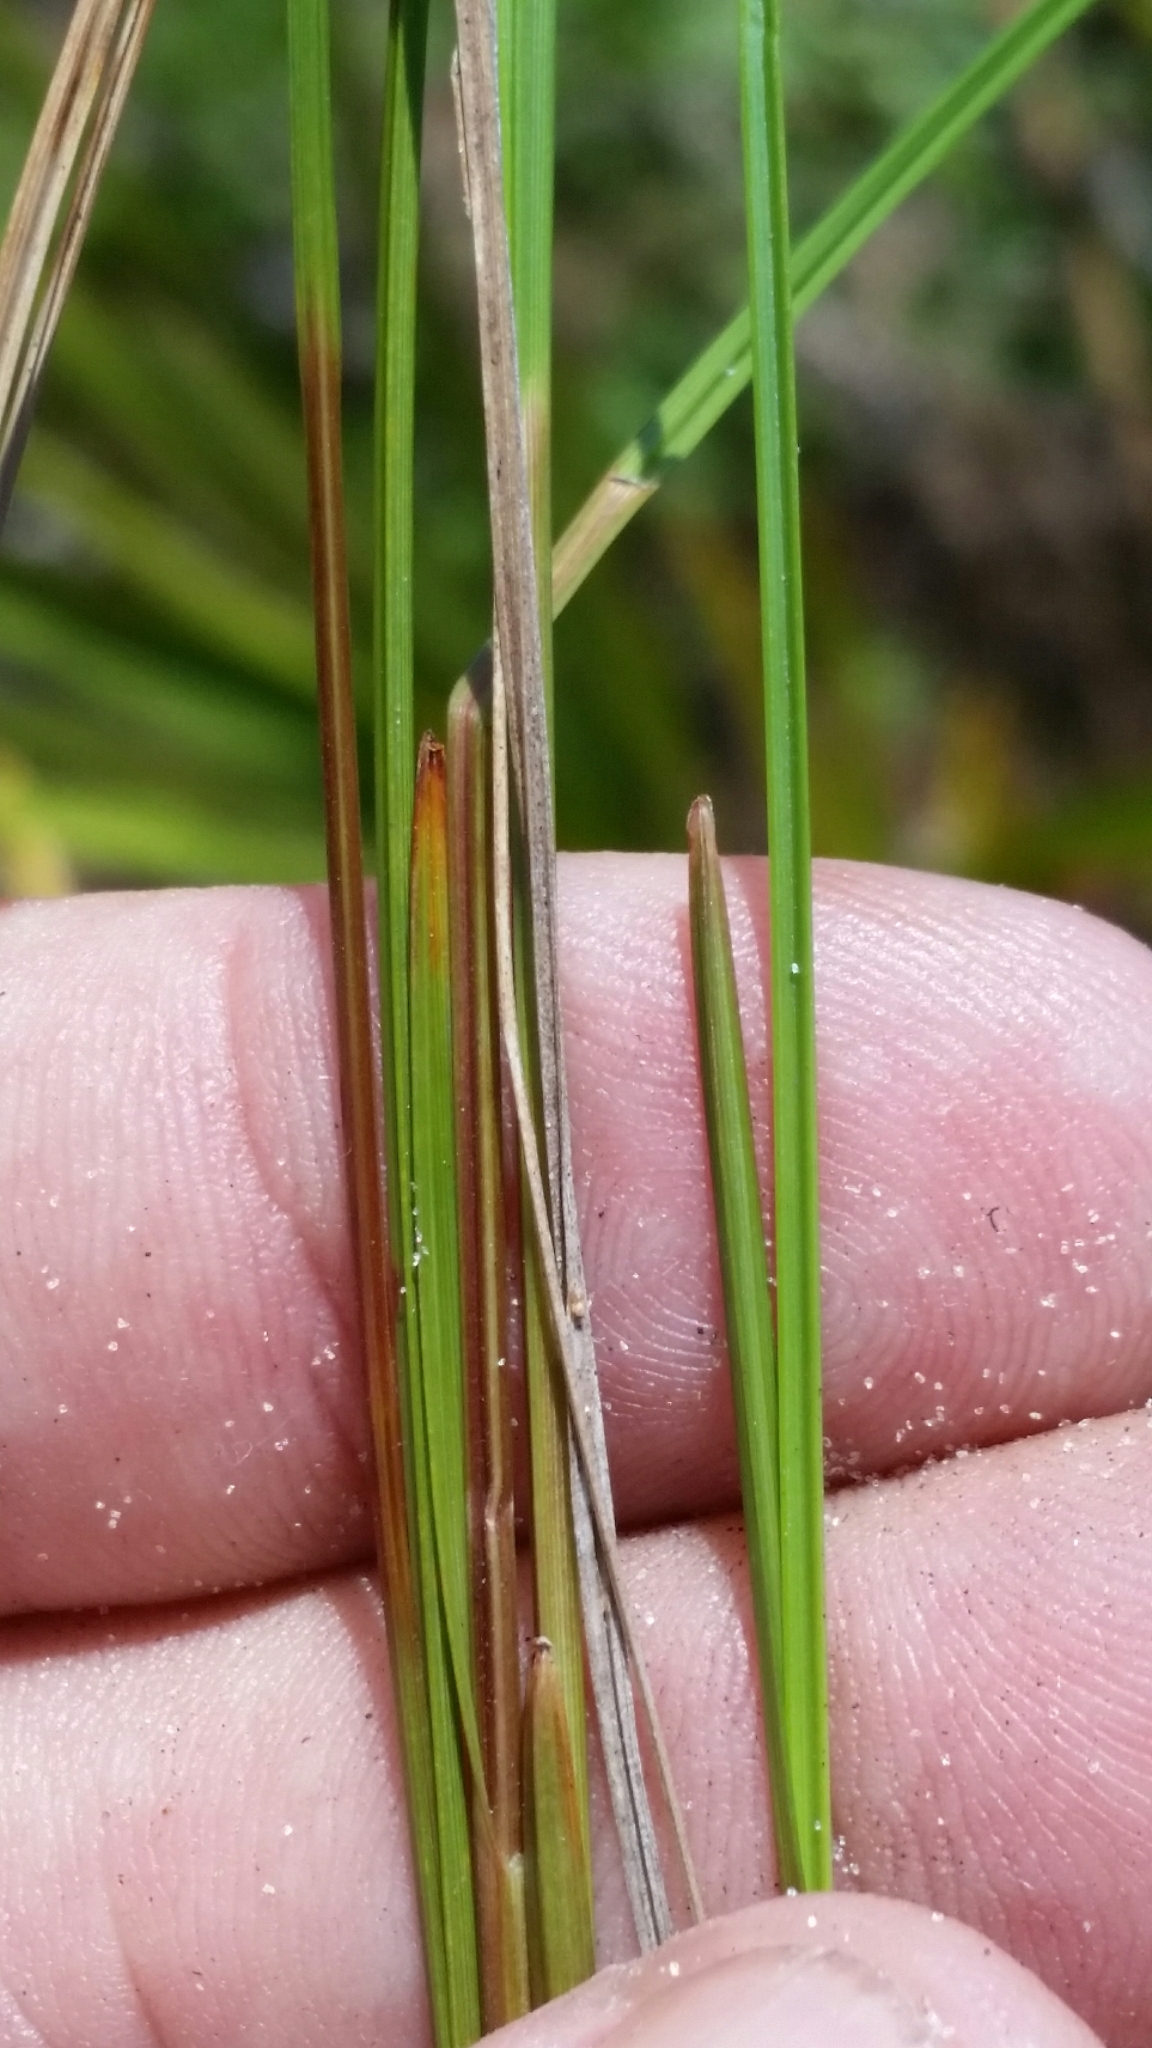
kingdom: Plantae
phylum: Tracheophyta
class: Liliopsida
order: Poales
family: Cyperaceae
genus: Scleria
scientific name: Scleria ciliata
